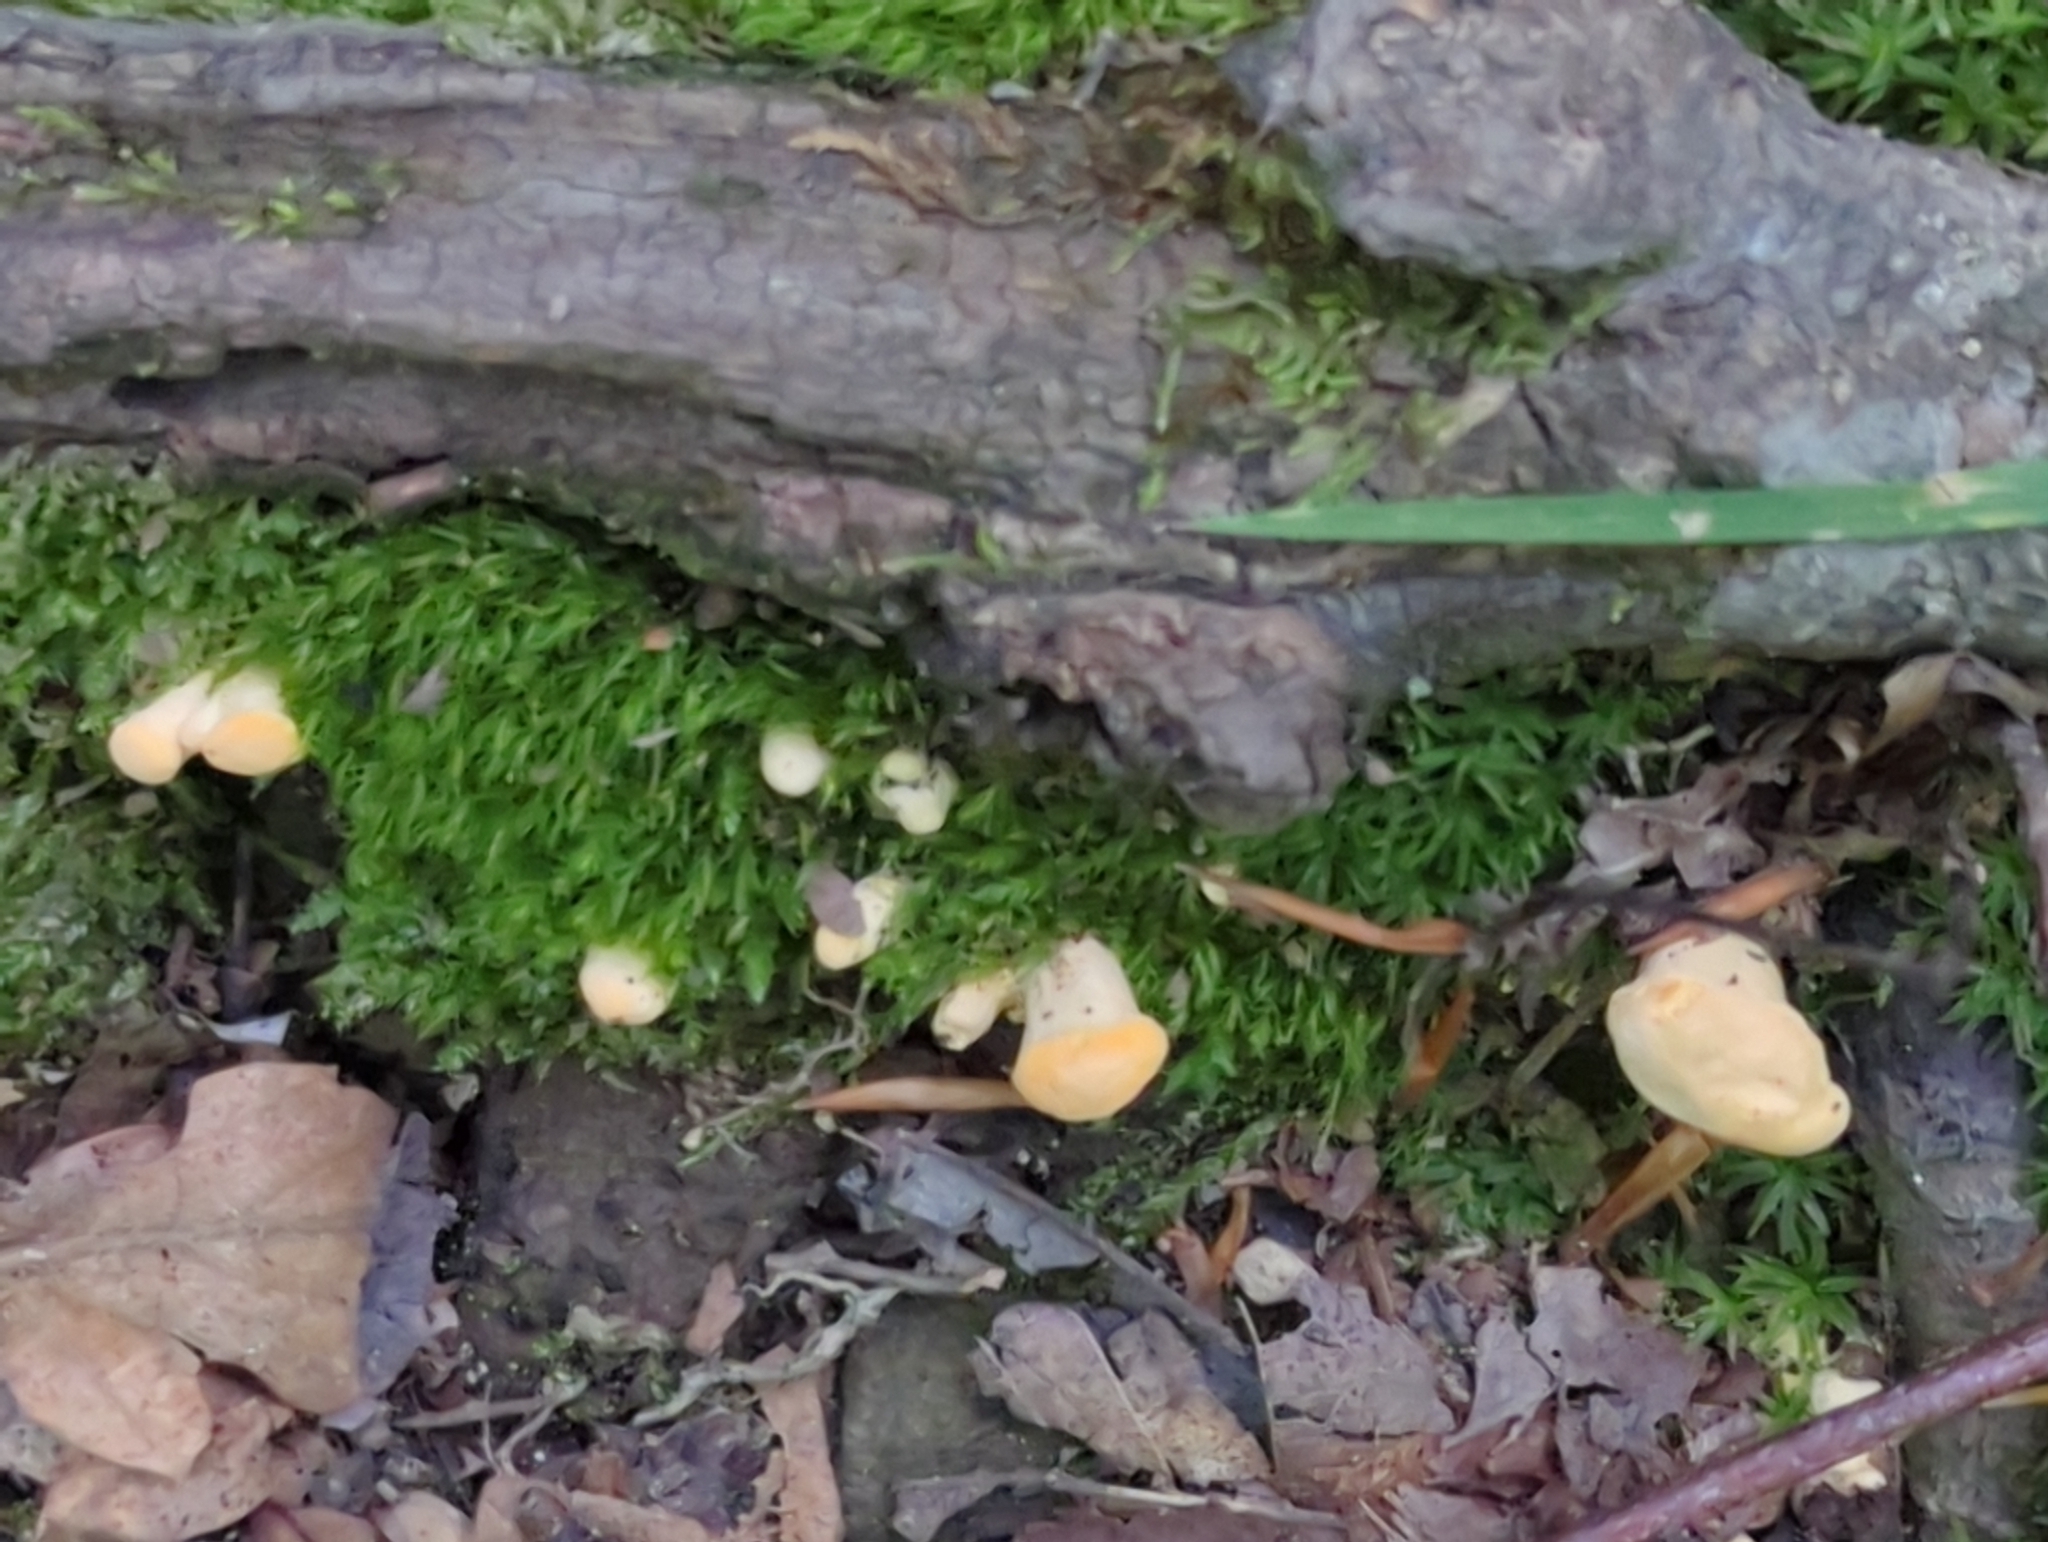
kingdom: Fungi
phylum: Basidiomycota
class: Agaricomycetes
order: Cantharellales
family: Hydnaceae
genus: Cantharellus
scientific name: Cantharellus lateritius
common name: Smooth chanterelle
